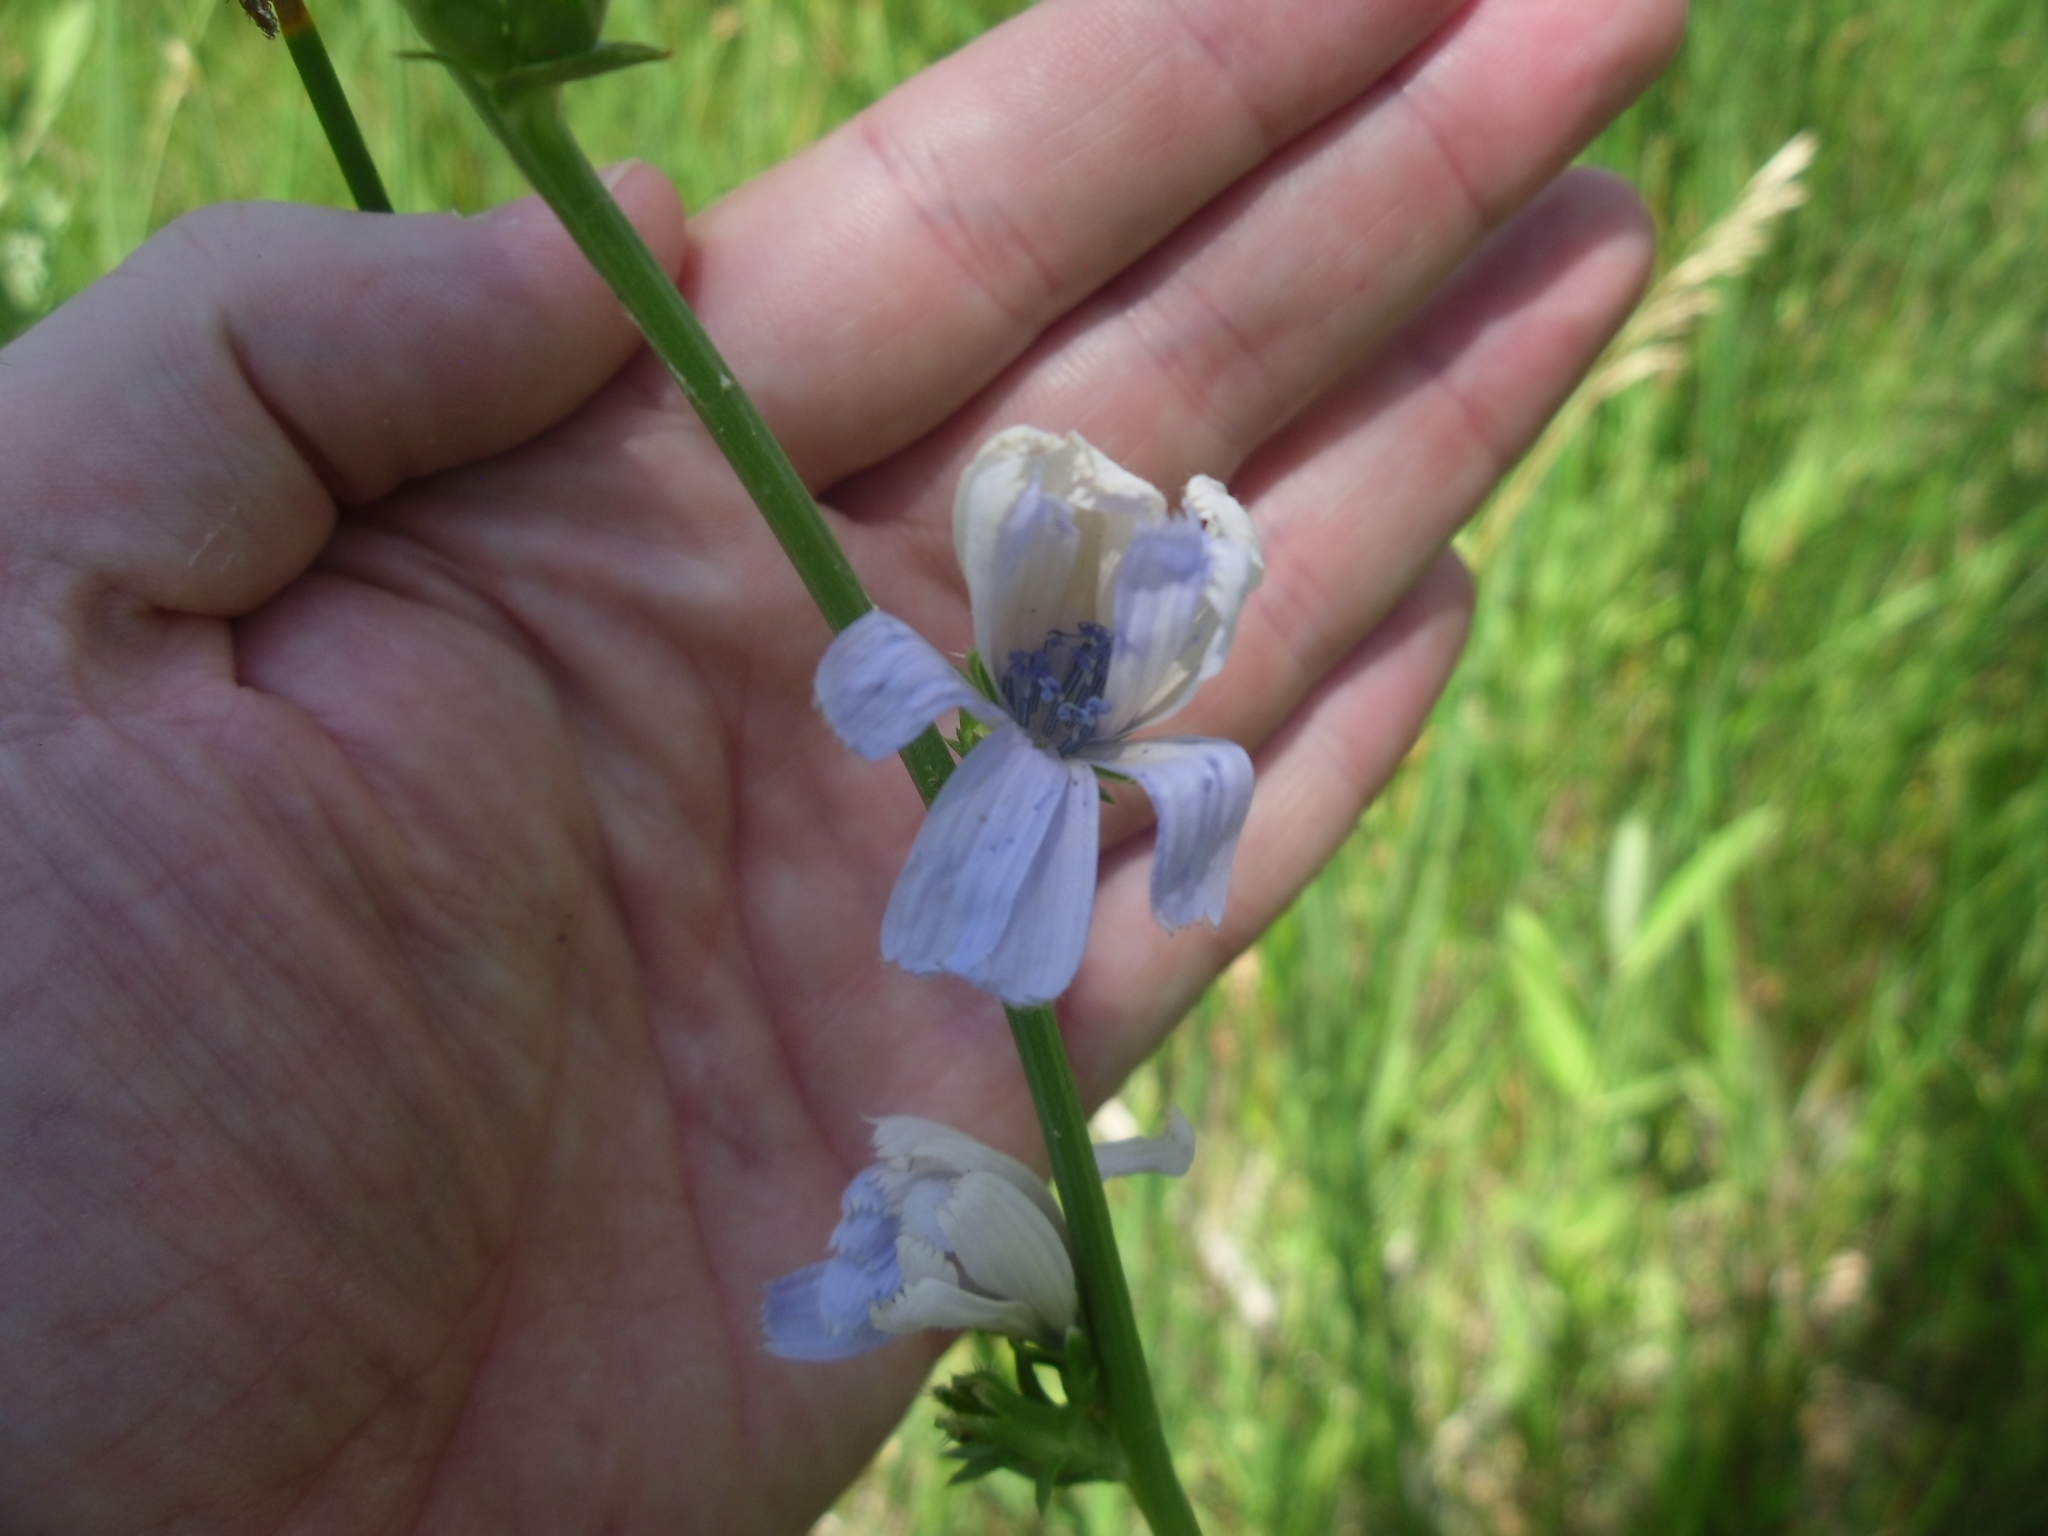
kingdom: Plantae
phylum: Tracheophyta
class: Magnoliopsida
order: Asterales
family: Asteraceae
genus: Cichorium
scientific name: Cichorium intybus
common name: Chicory
